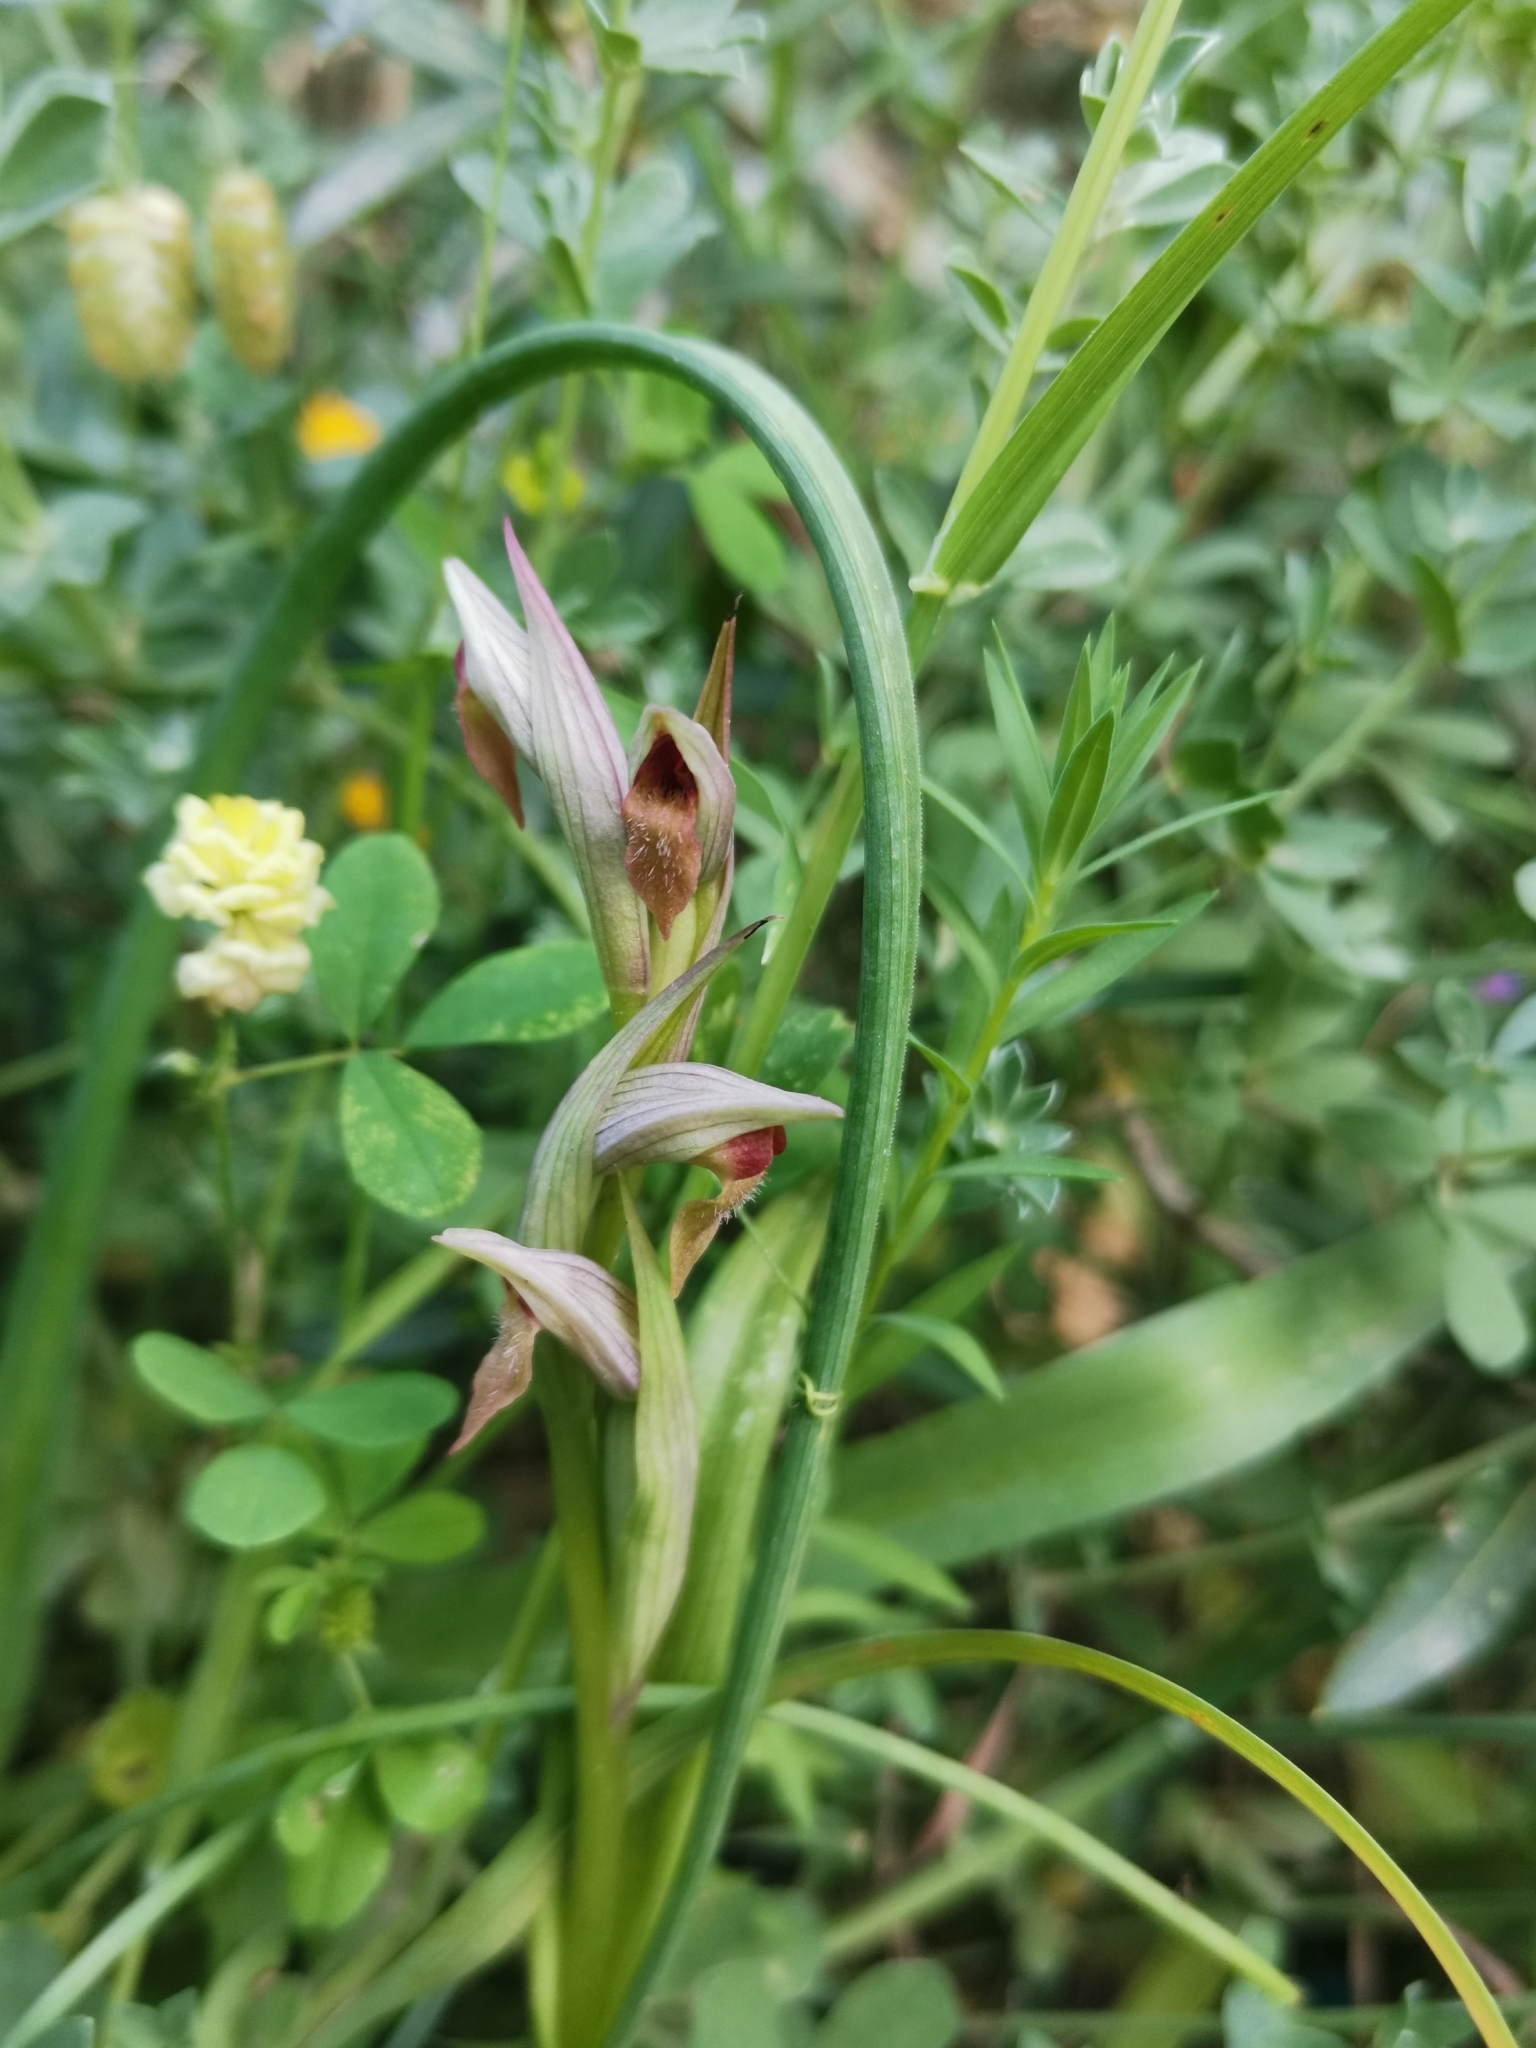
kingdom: Plantae
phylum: Tracheophyta
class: Liliopsida
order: Asparagales
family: Orchidaceae
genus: Serapias
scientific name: Serapias parviflora
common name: Small-flowered tongue-orchid
